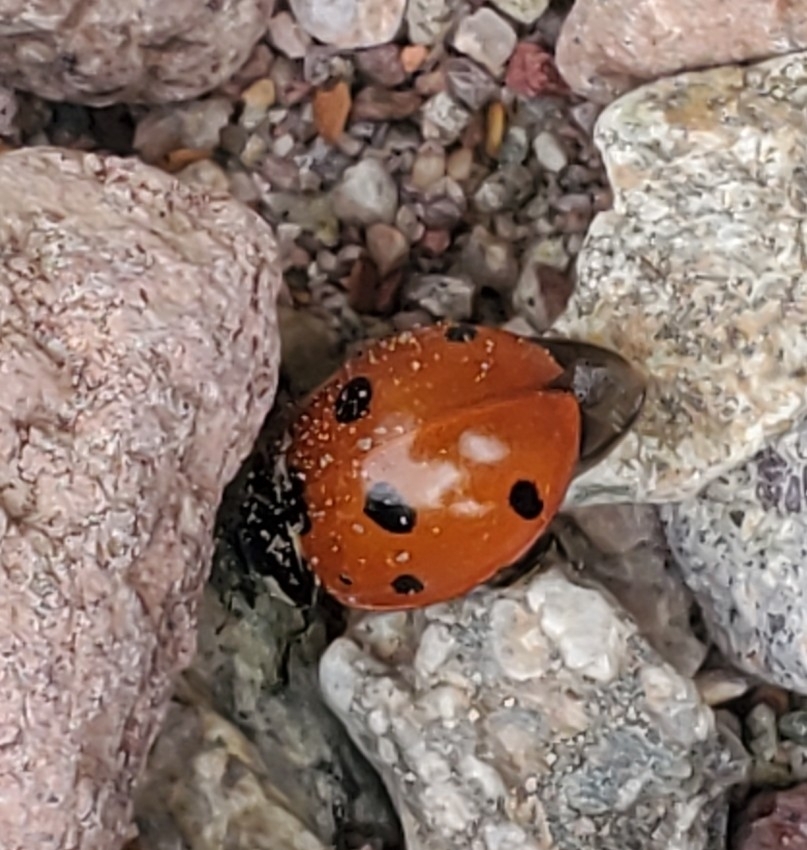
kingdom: Animalia
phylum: Arthropoda
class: Insecta
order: Coleoptera
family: Coccinellidae
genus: Coccinella
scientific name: Coccinella septempunctata
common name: Sevenspotted lady beetle
